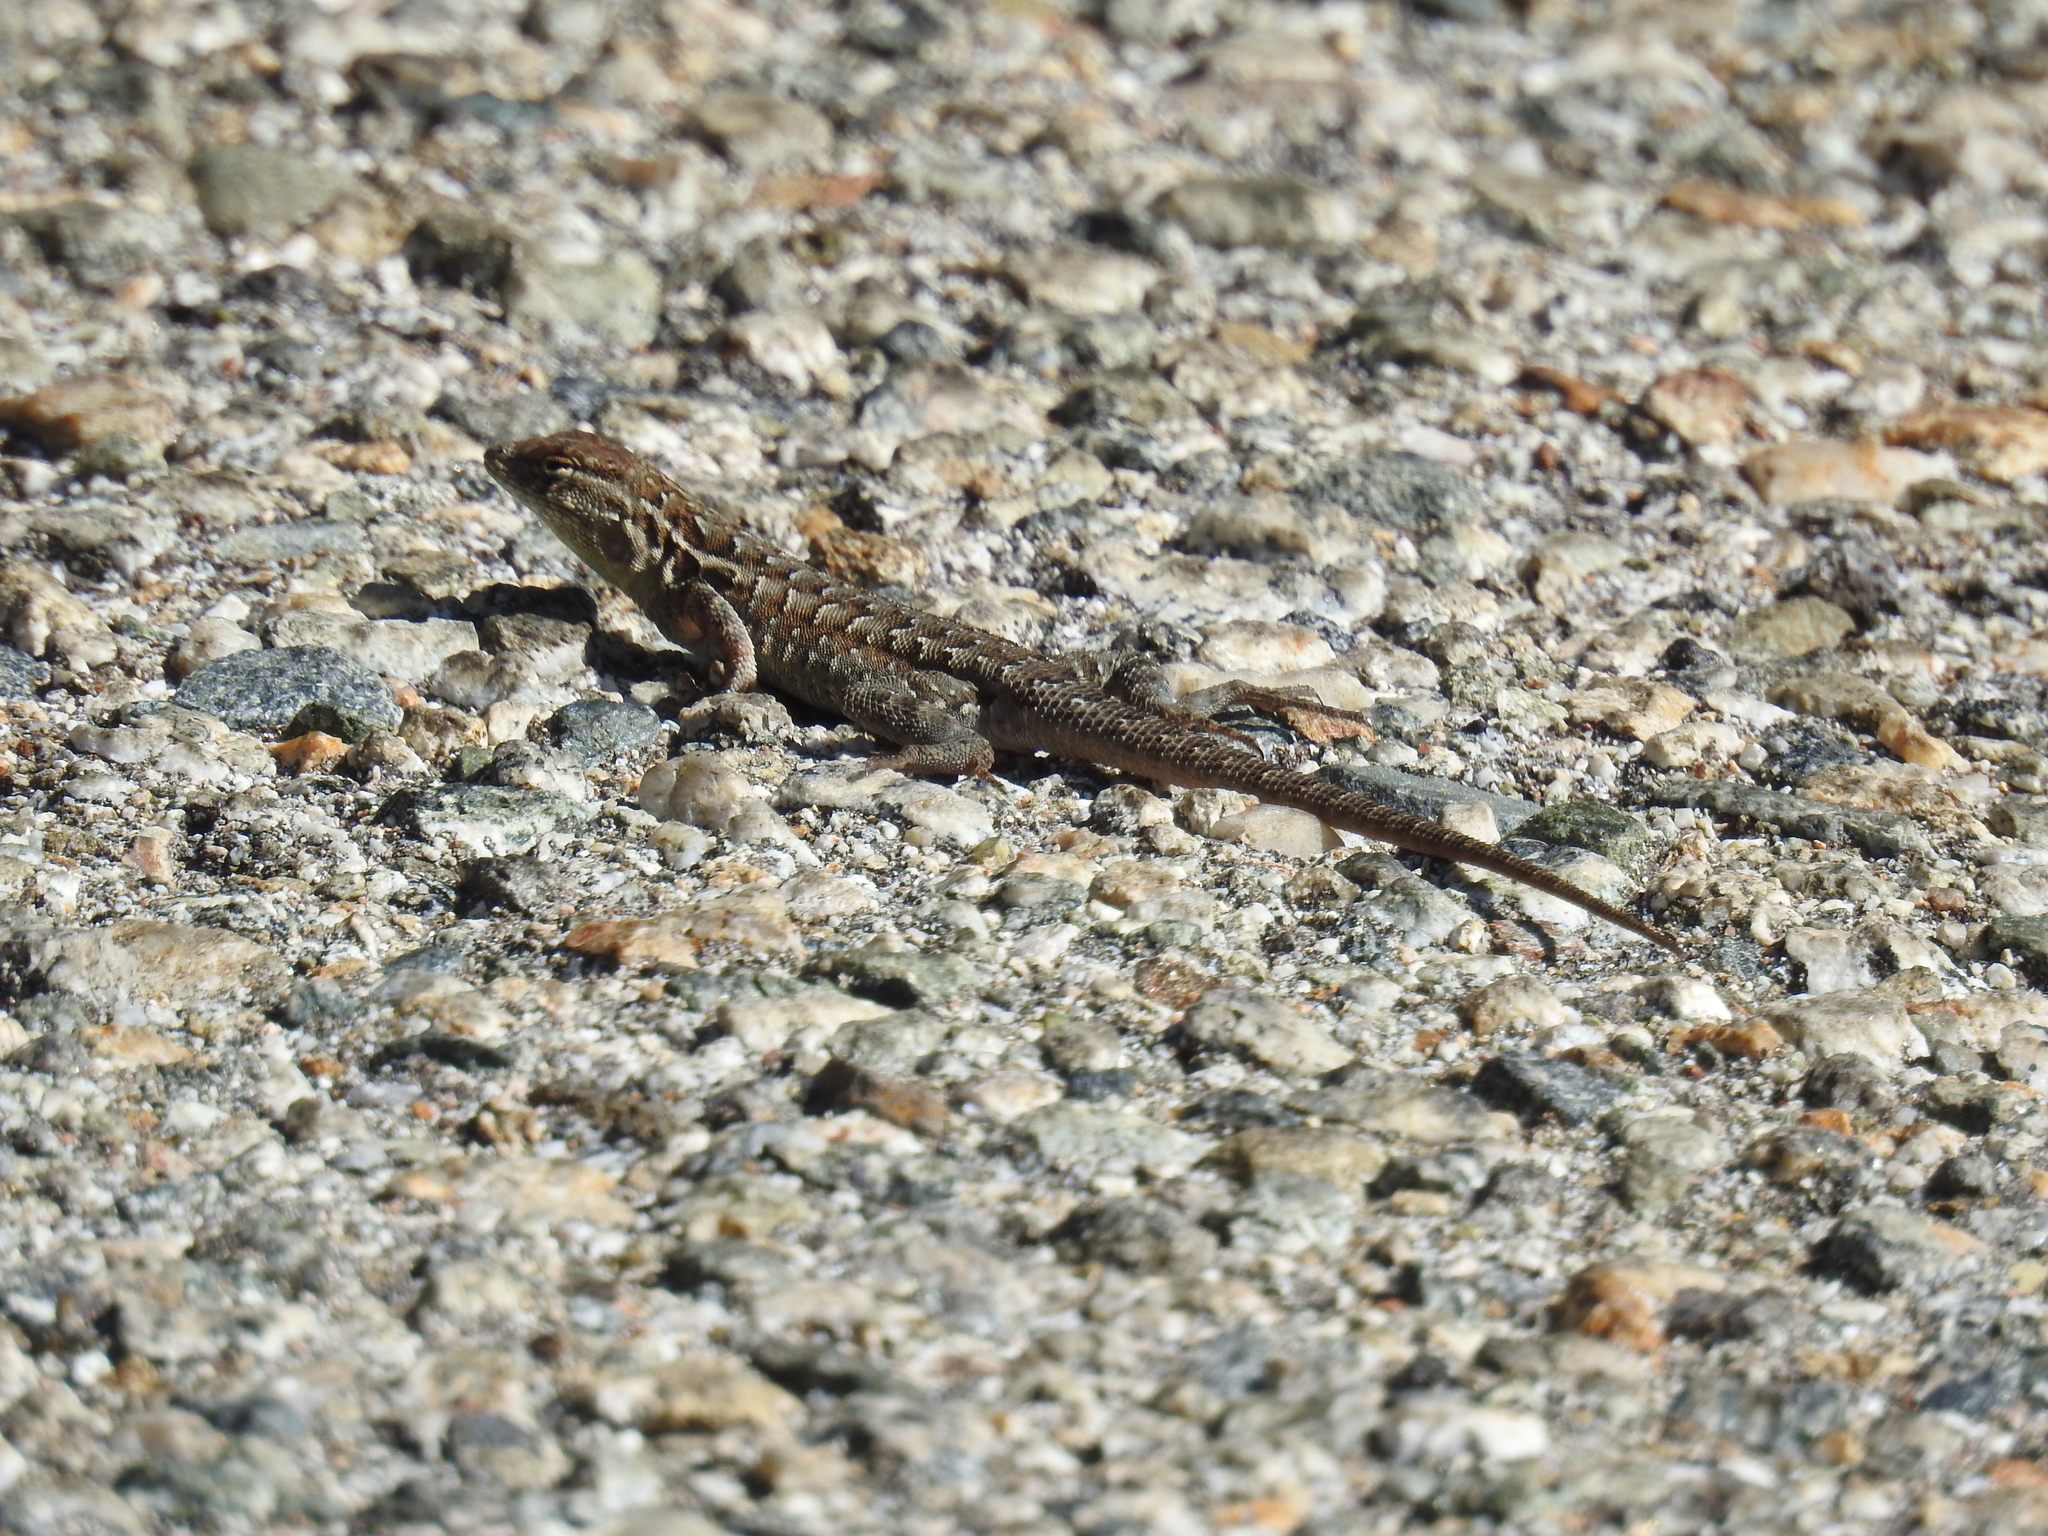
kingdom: Animalia
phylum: Chordata
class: Squamata
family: Phrynosomatidae
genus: Uta
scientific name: Uta stansburiana
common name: Side-blotched lizard
